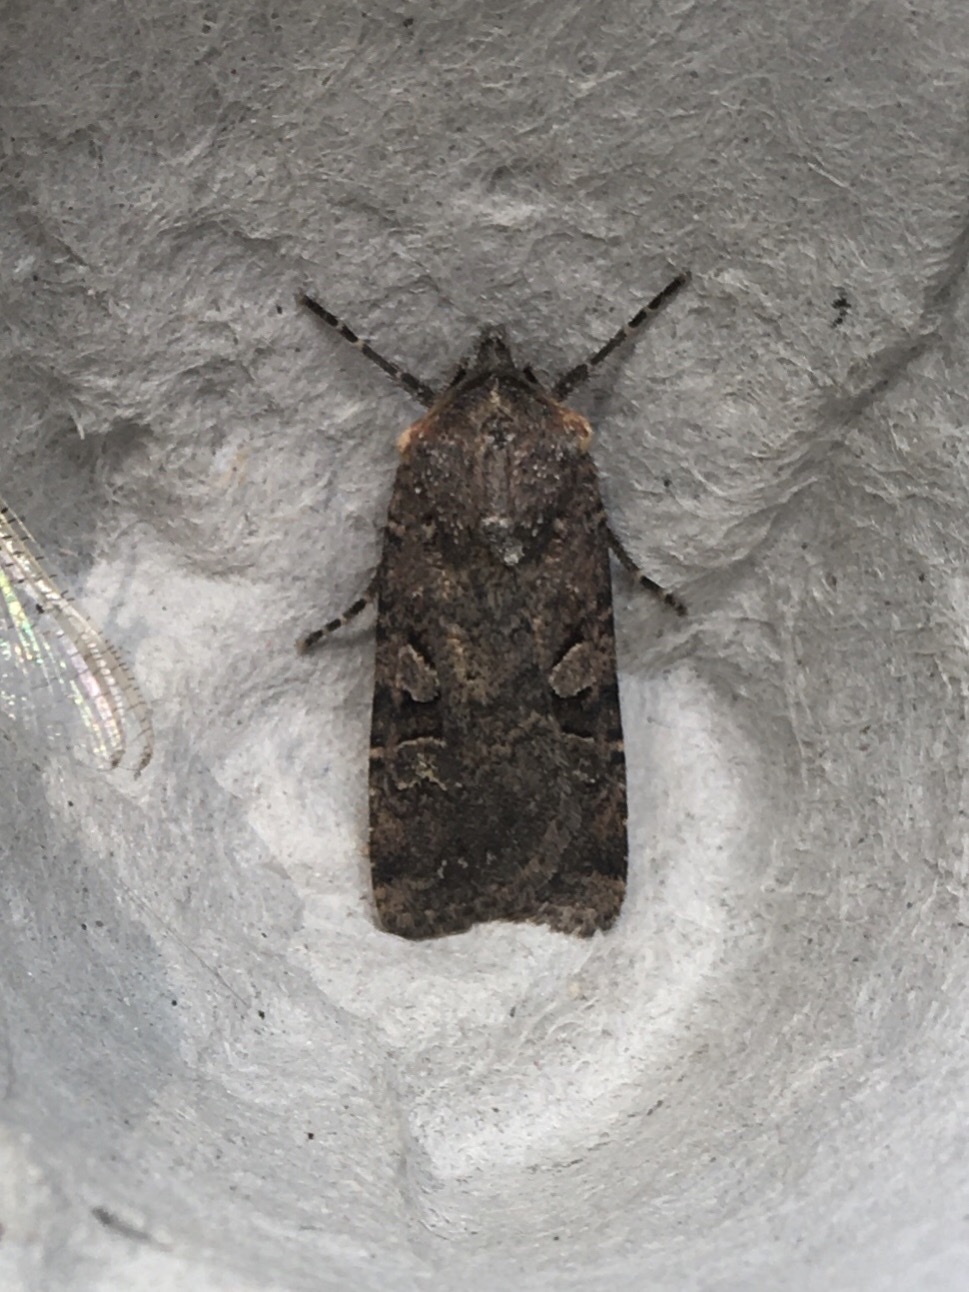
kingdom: Animalia
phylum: Arthropoda
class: Insecta
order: Lepidoptera
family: Noctuidae
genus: Euxoa
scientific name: Euxoa tessellata
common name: Striped cutworm
